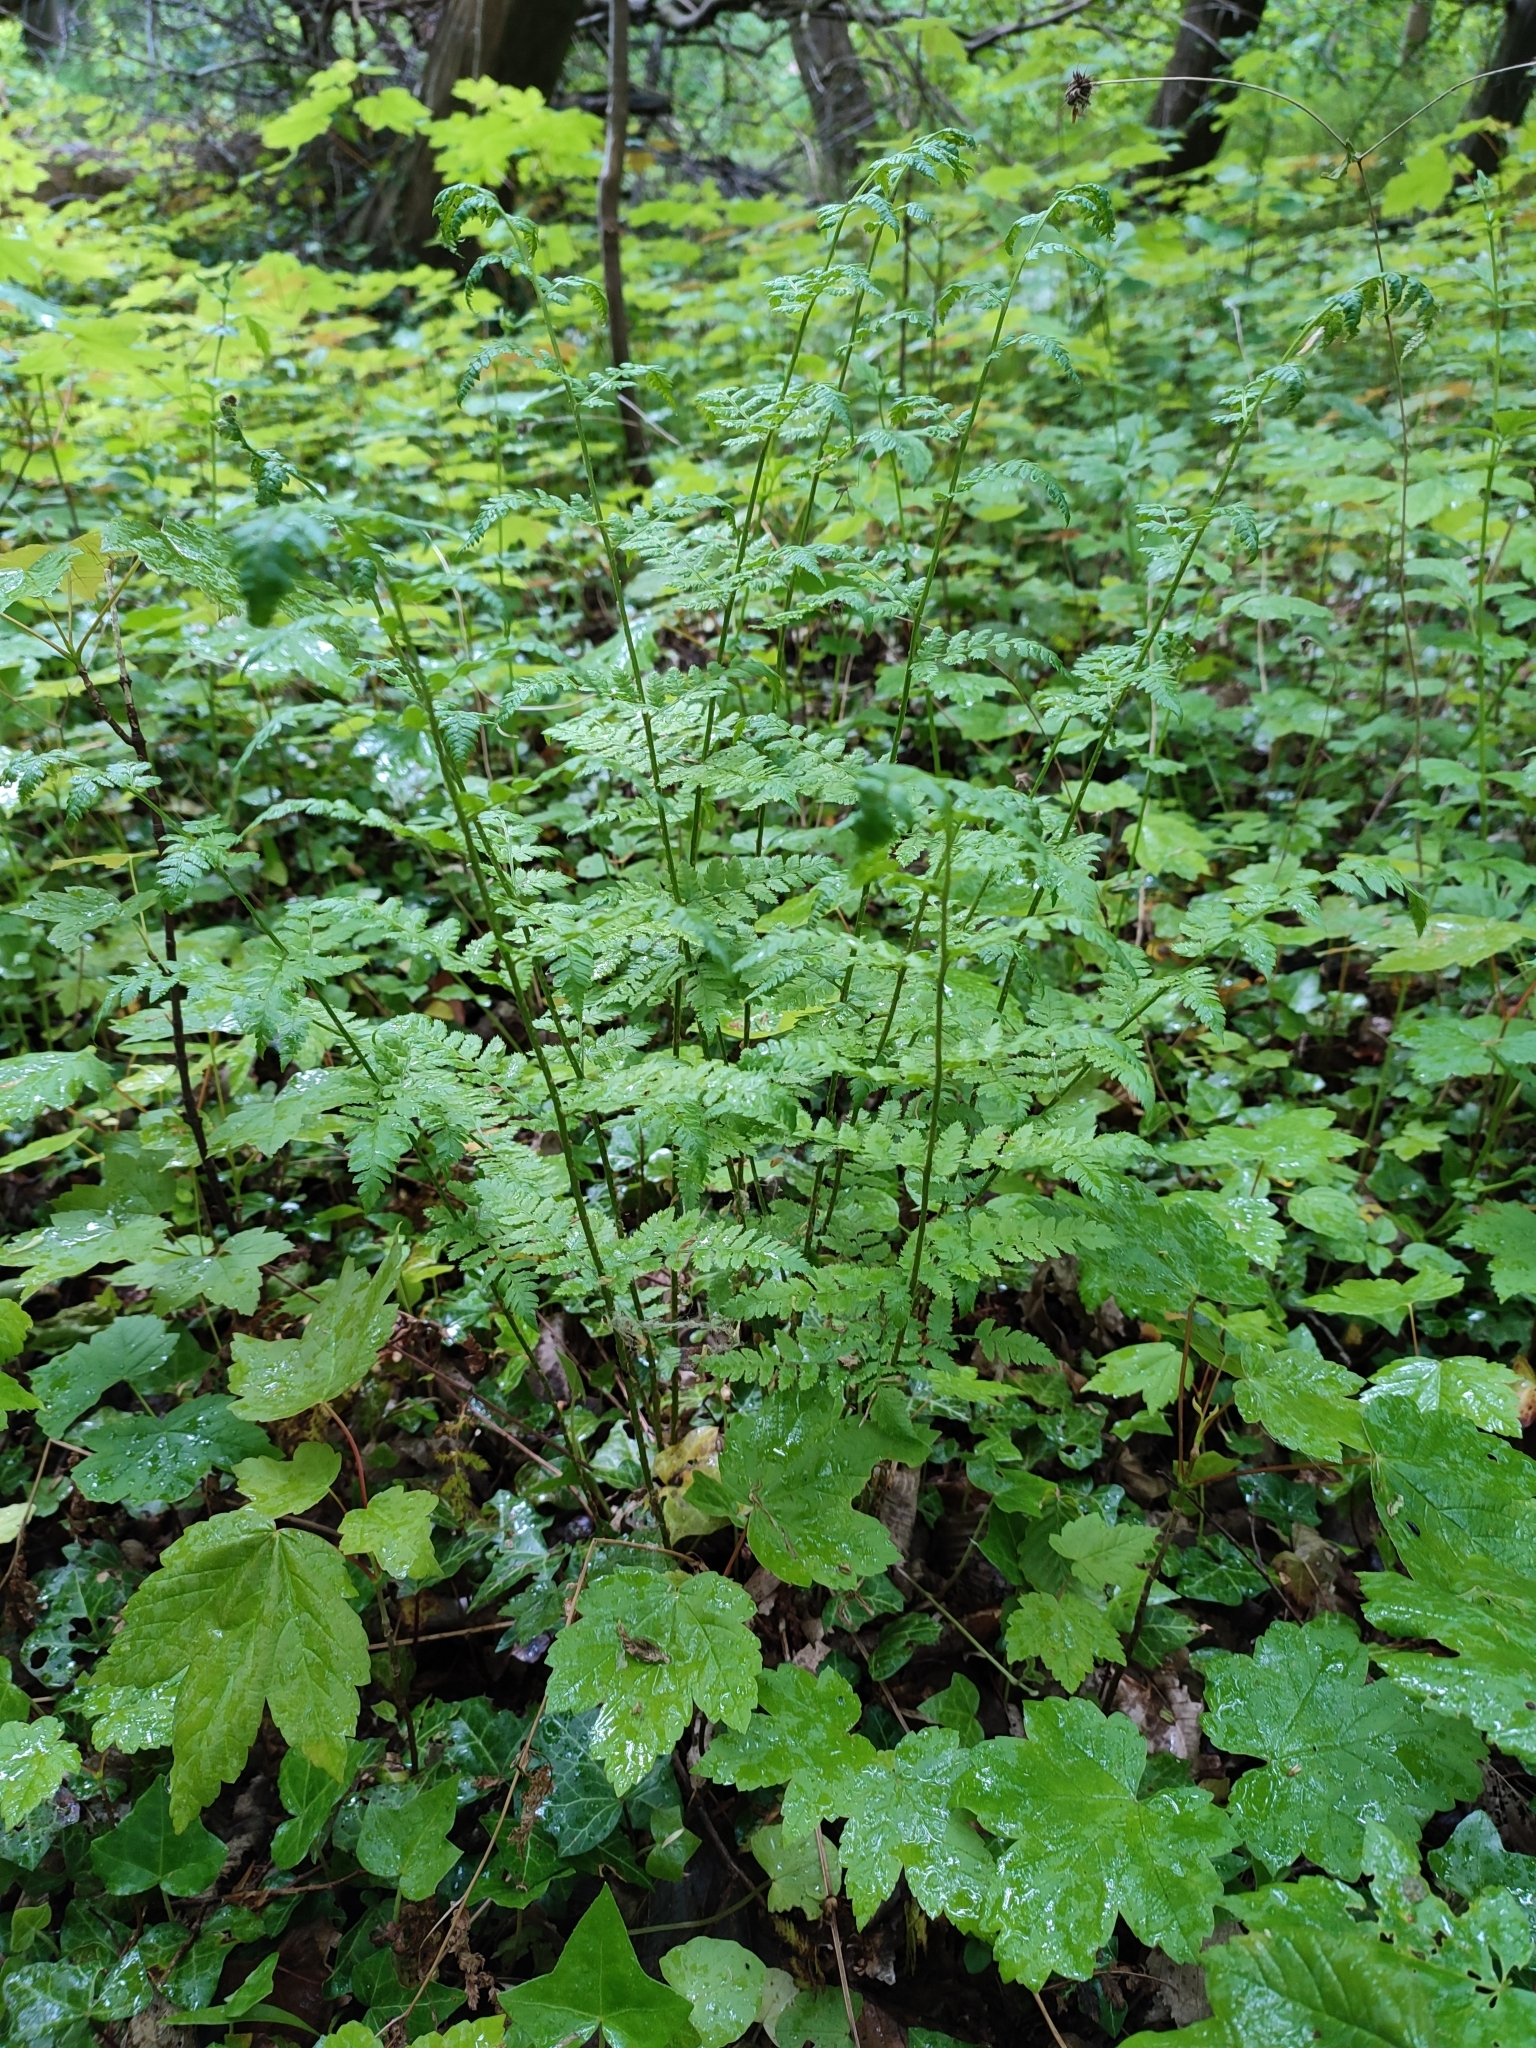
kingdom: Plantae
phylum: Tracheophyta
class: Polypodiopsida
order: Polypodiales
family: Dryopteridaceae
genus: Dryopteris
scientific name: Dryopteris carthusiana
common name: Narrow buckler-fern
